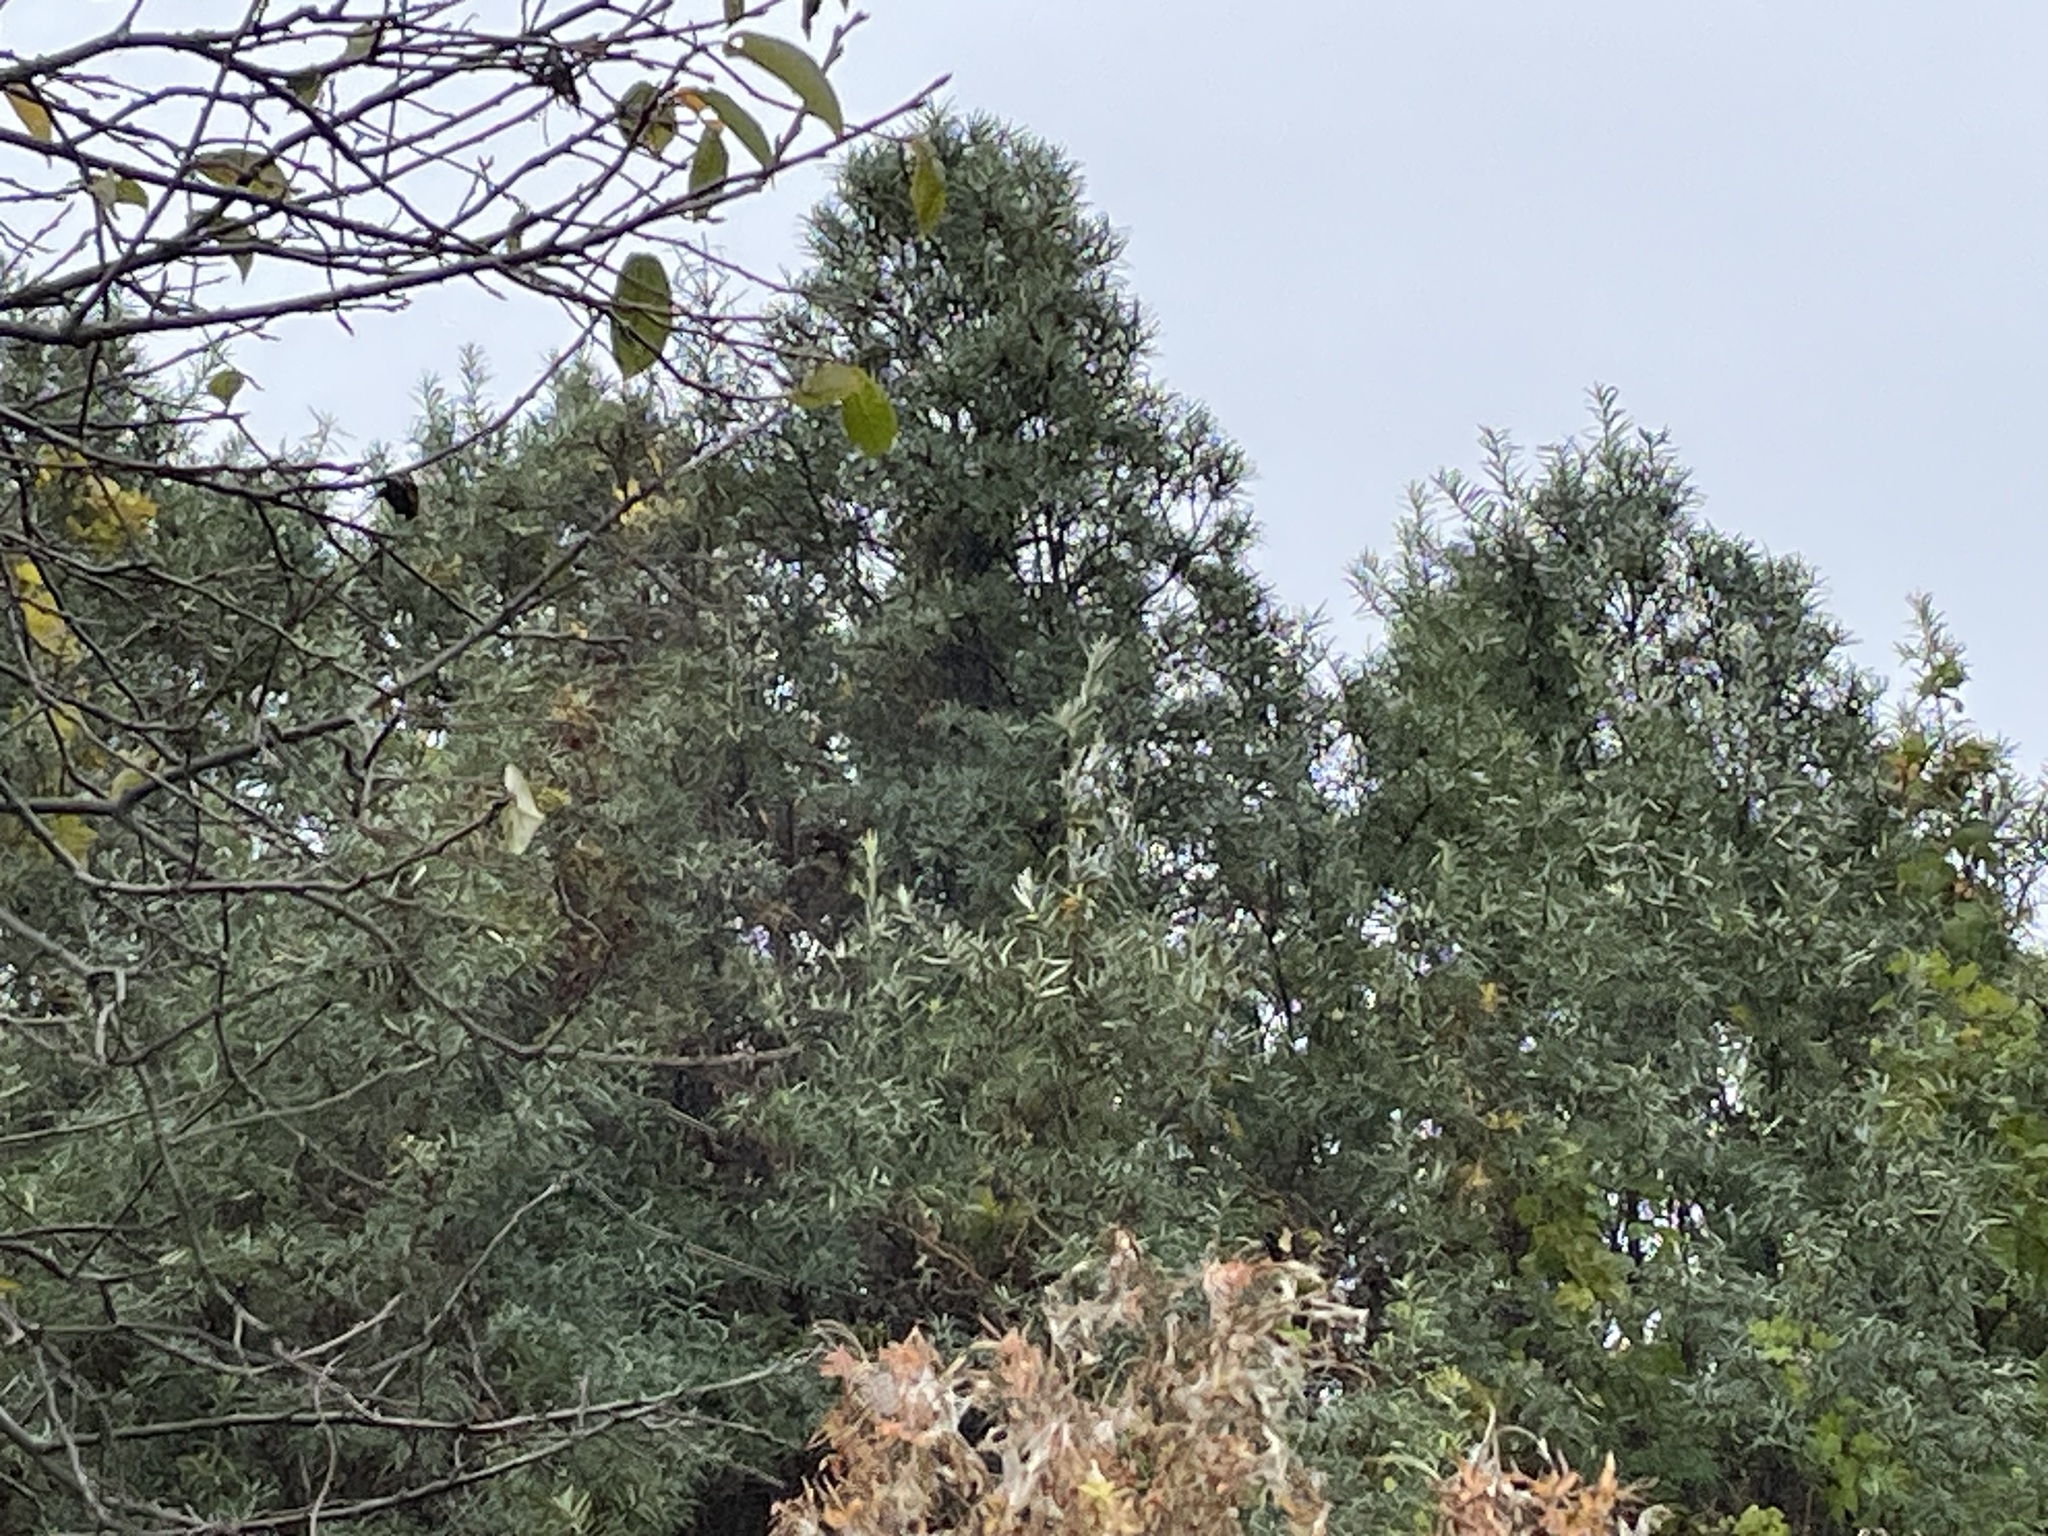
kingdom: Plantae
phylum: Tracheophyta
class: Magnoliopsida
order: Rosales
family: Elaeagnaceae
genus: Hippophae
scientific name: Hippophae rhamnoides
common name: Sea-buckthorn
